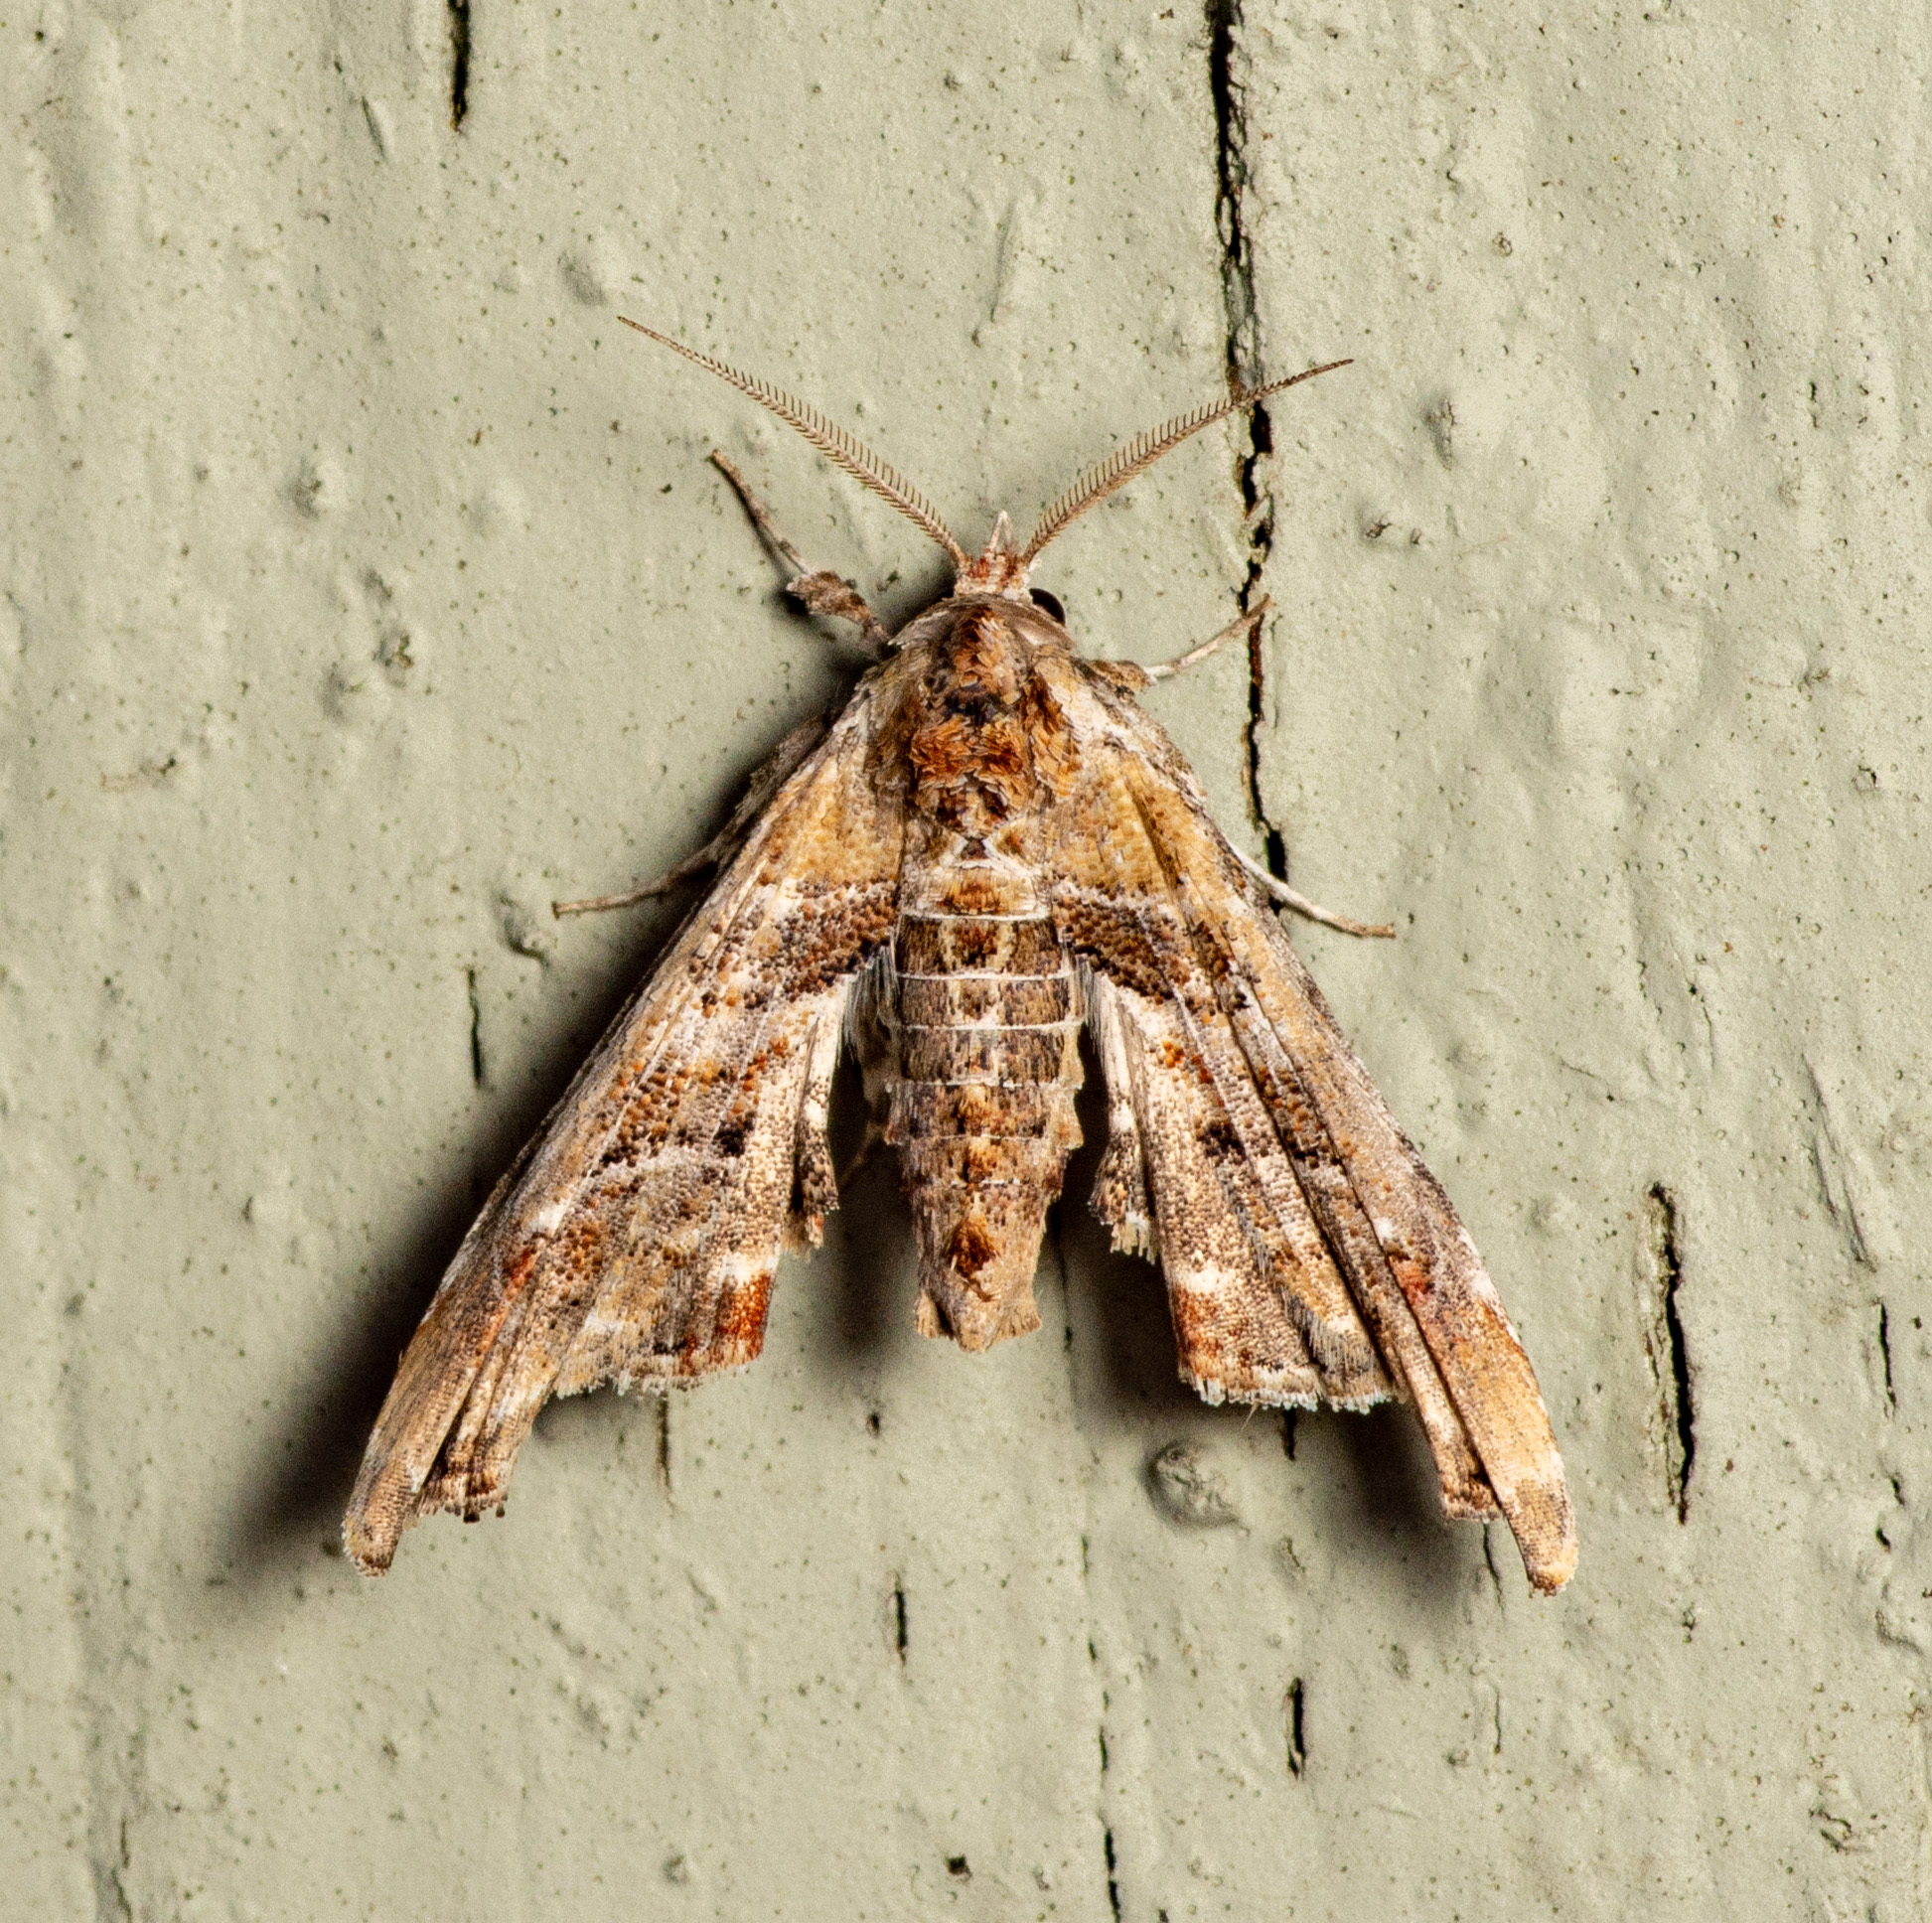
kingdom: Animalia
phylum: Arthropoda
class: Insecta
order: Lepidoptera
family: Euteliidae
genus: Marathyssa
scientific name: Marathyssa basalis
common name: Light marathyssa moth
